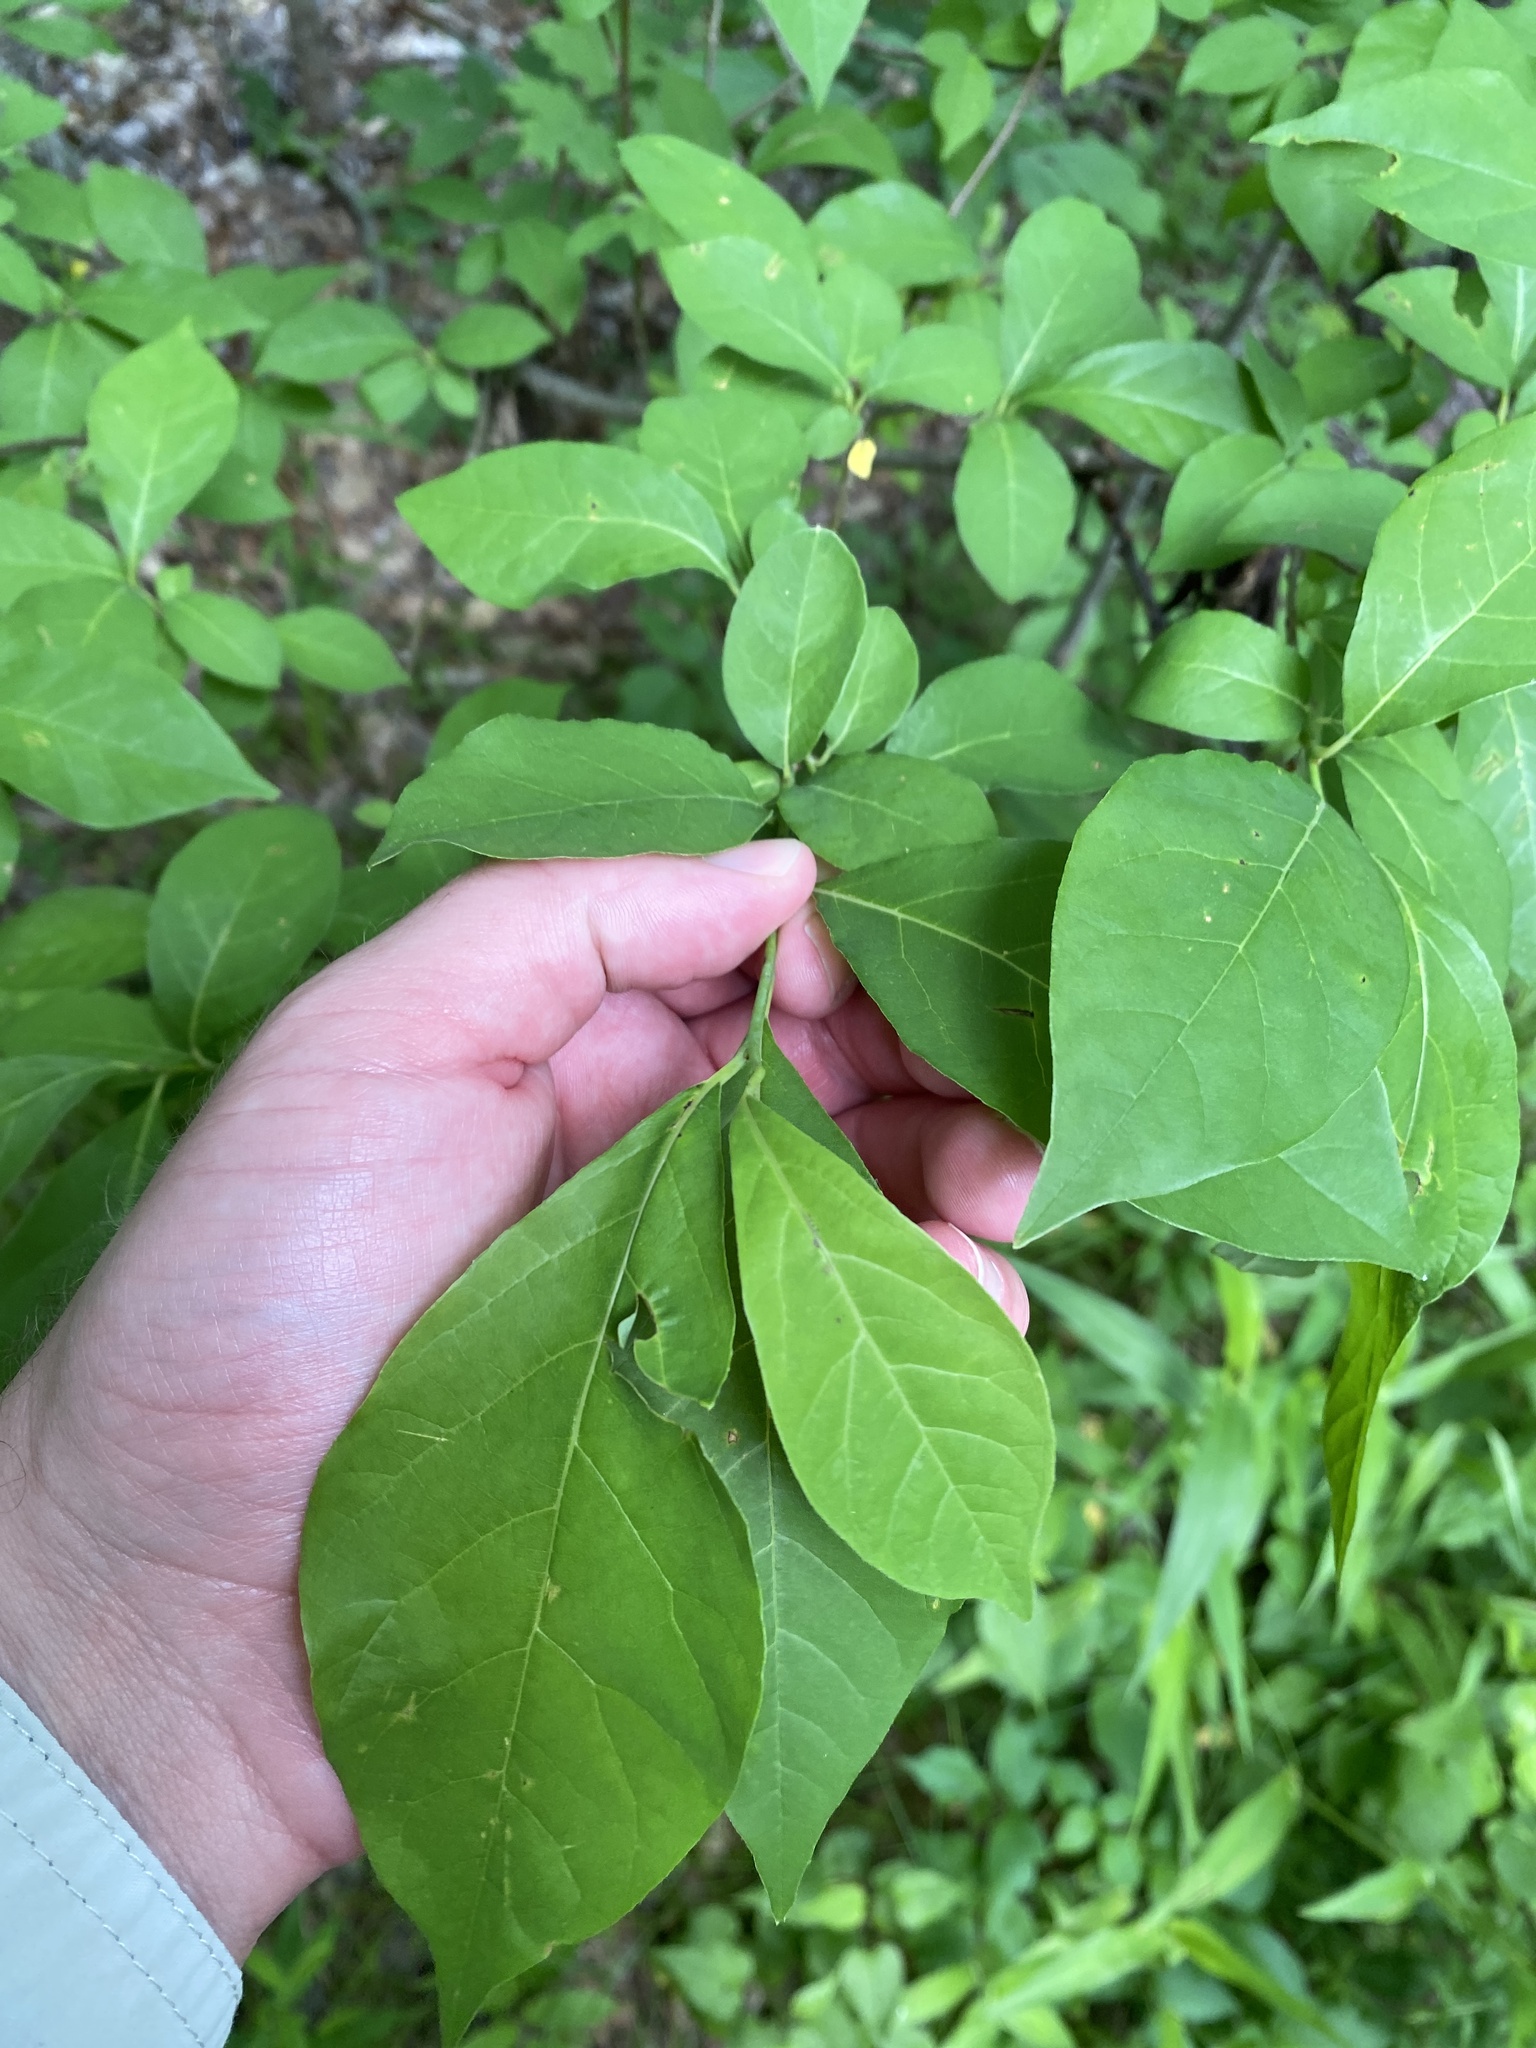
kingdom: Plantae
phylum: Tracheophyta
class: Magnoliopsida
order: Laurales
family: Lauraceae
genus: Lindera
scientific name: Lindera benzoin
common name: Spicebush
